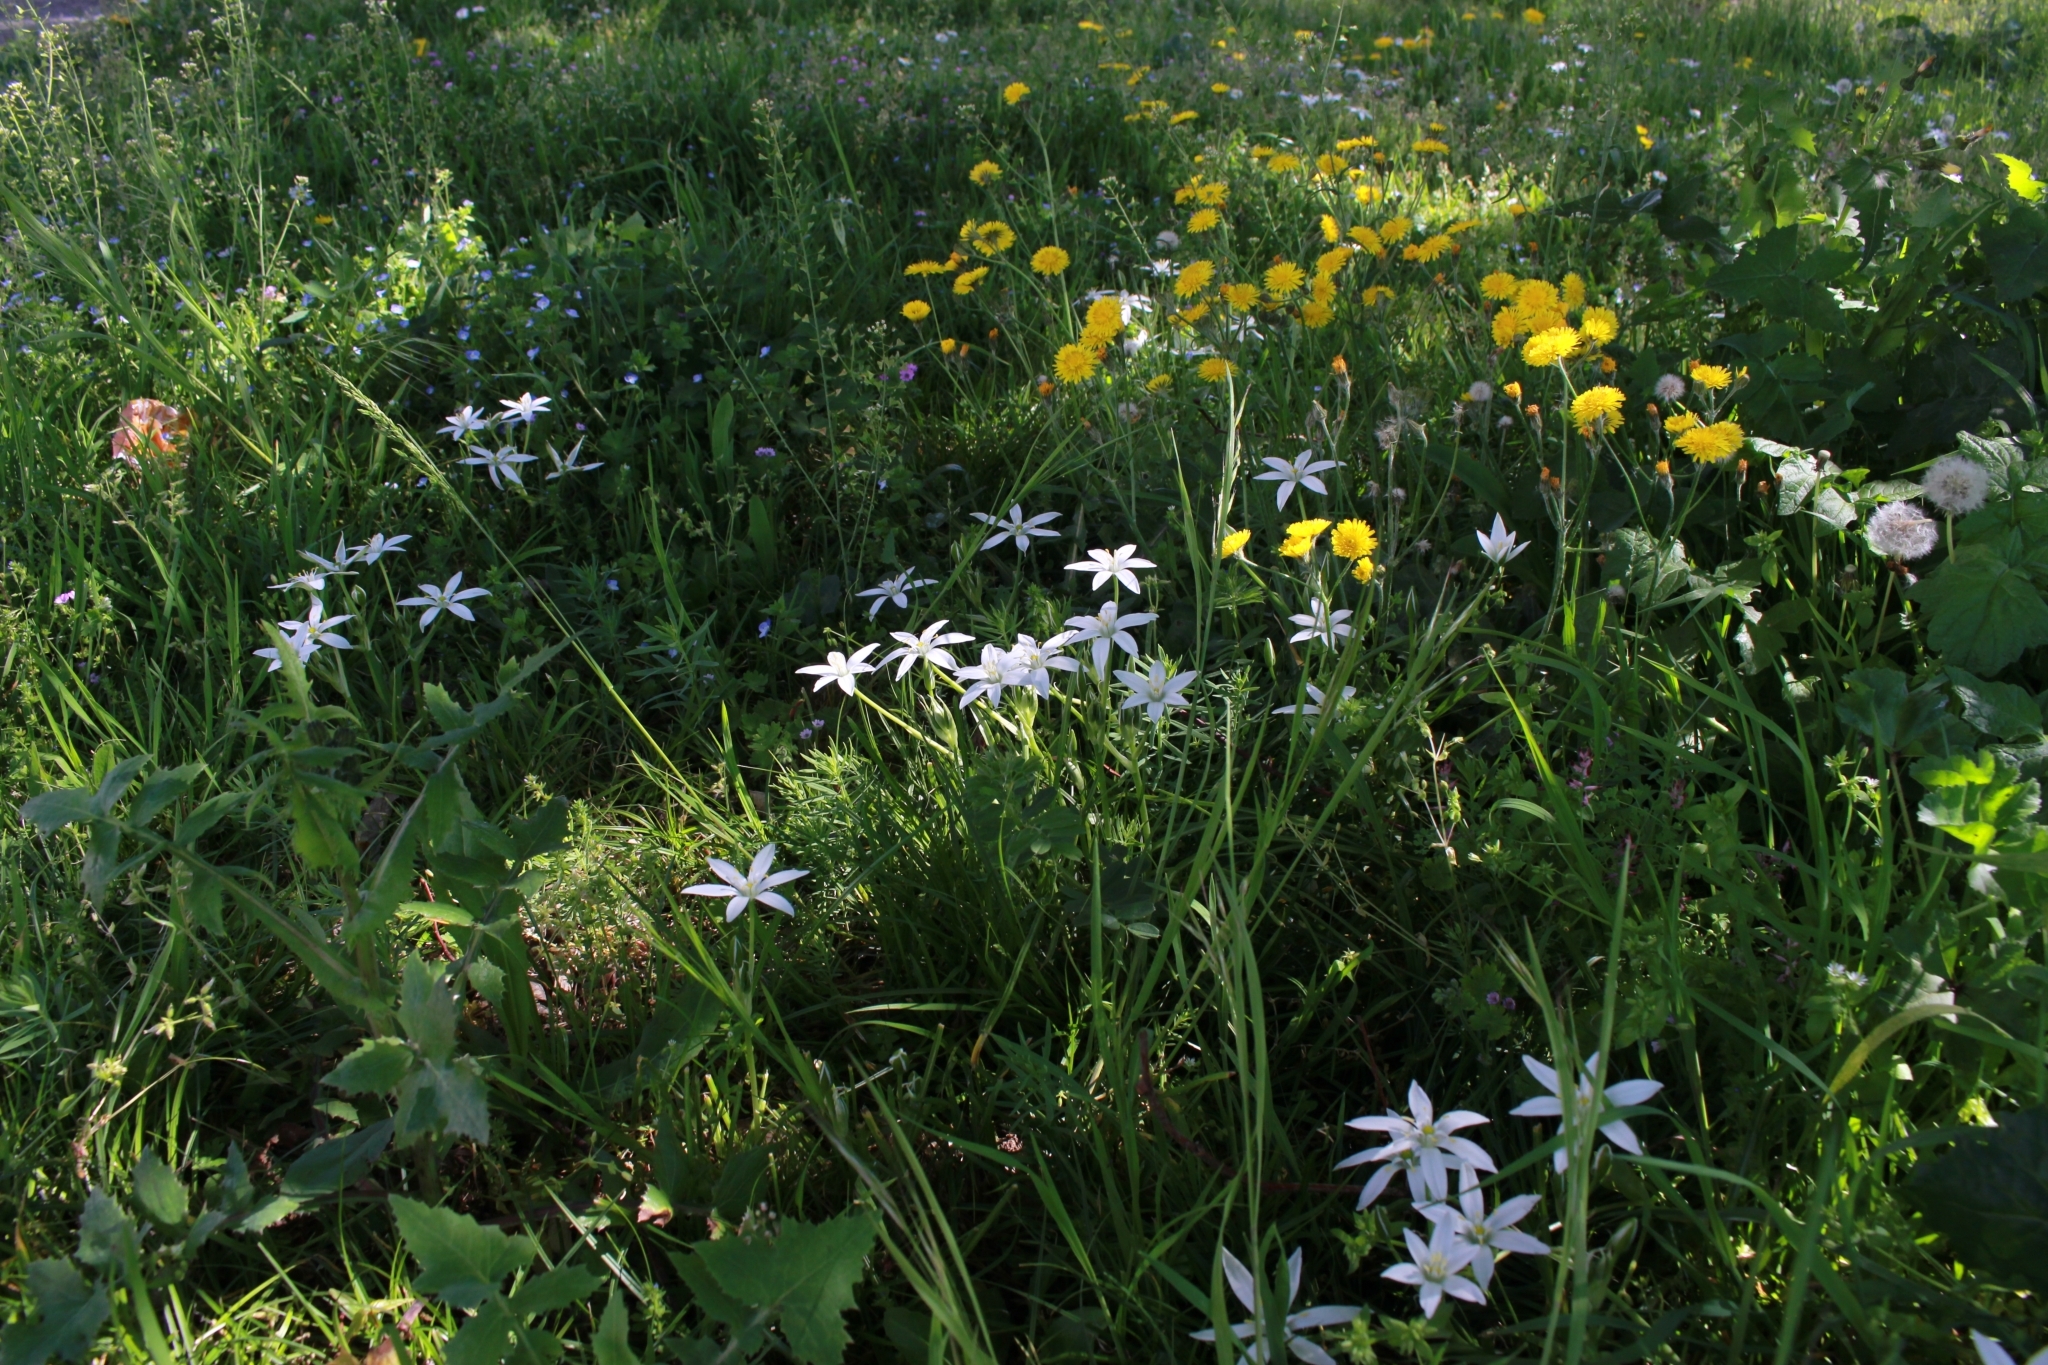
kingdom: Plantae
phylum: Tracheophyta
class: Liliopsida
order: Asparagales
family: Asparagaceae
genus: Ornithogalum
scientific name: Ornithogalum divergens
